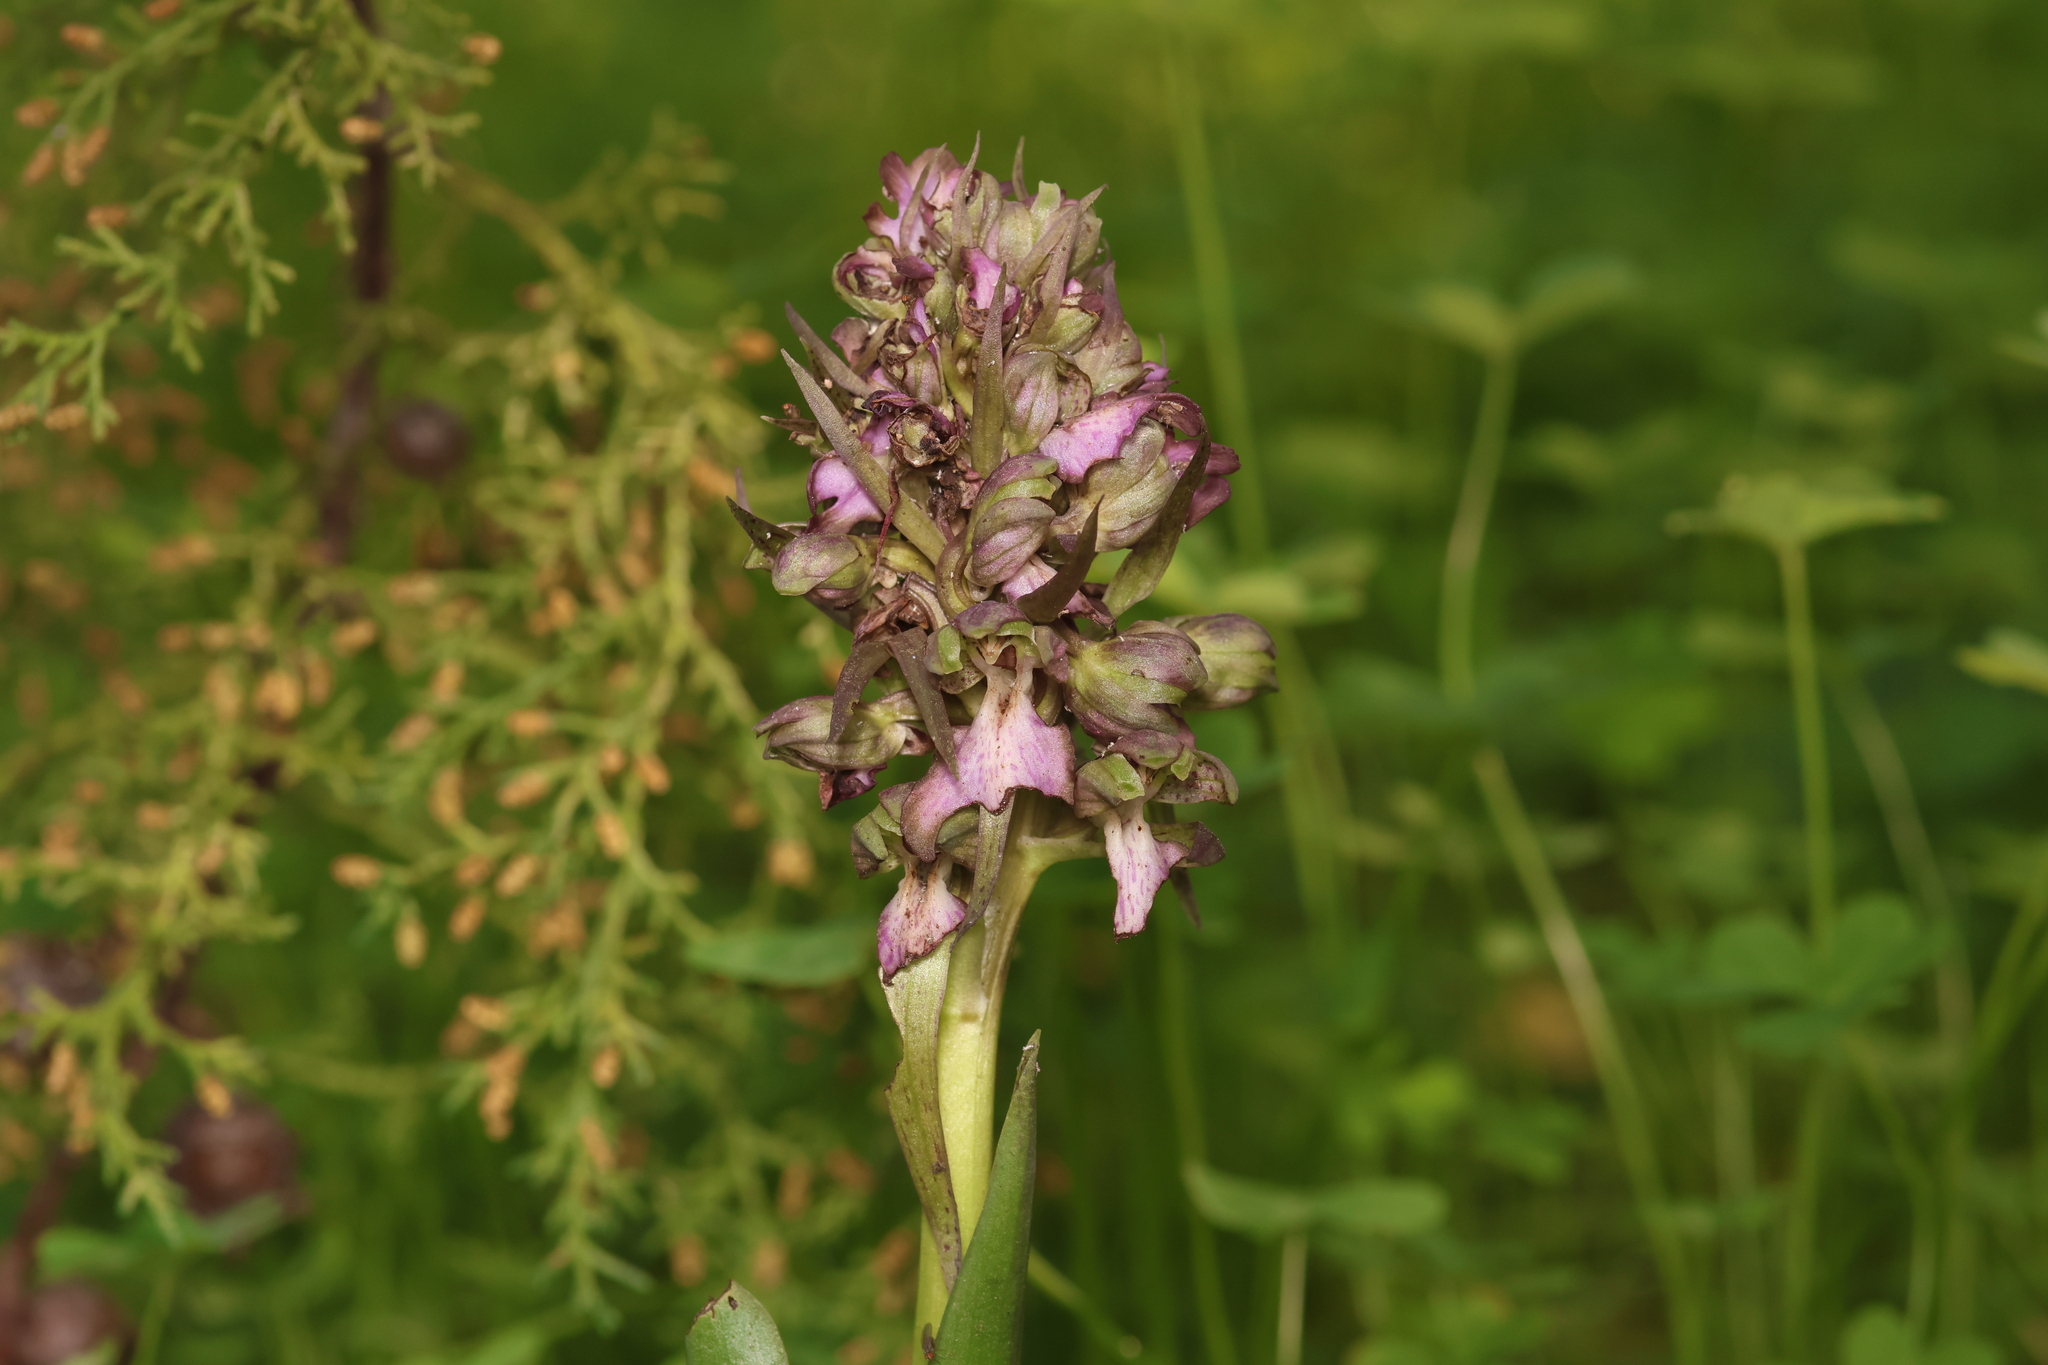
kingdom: Plantae
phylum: Tracheophyta
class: Liliopsida
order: Asparagales
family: Orchidaceae
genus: Himantoglossum
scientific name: Himantoglossum robertianum
